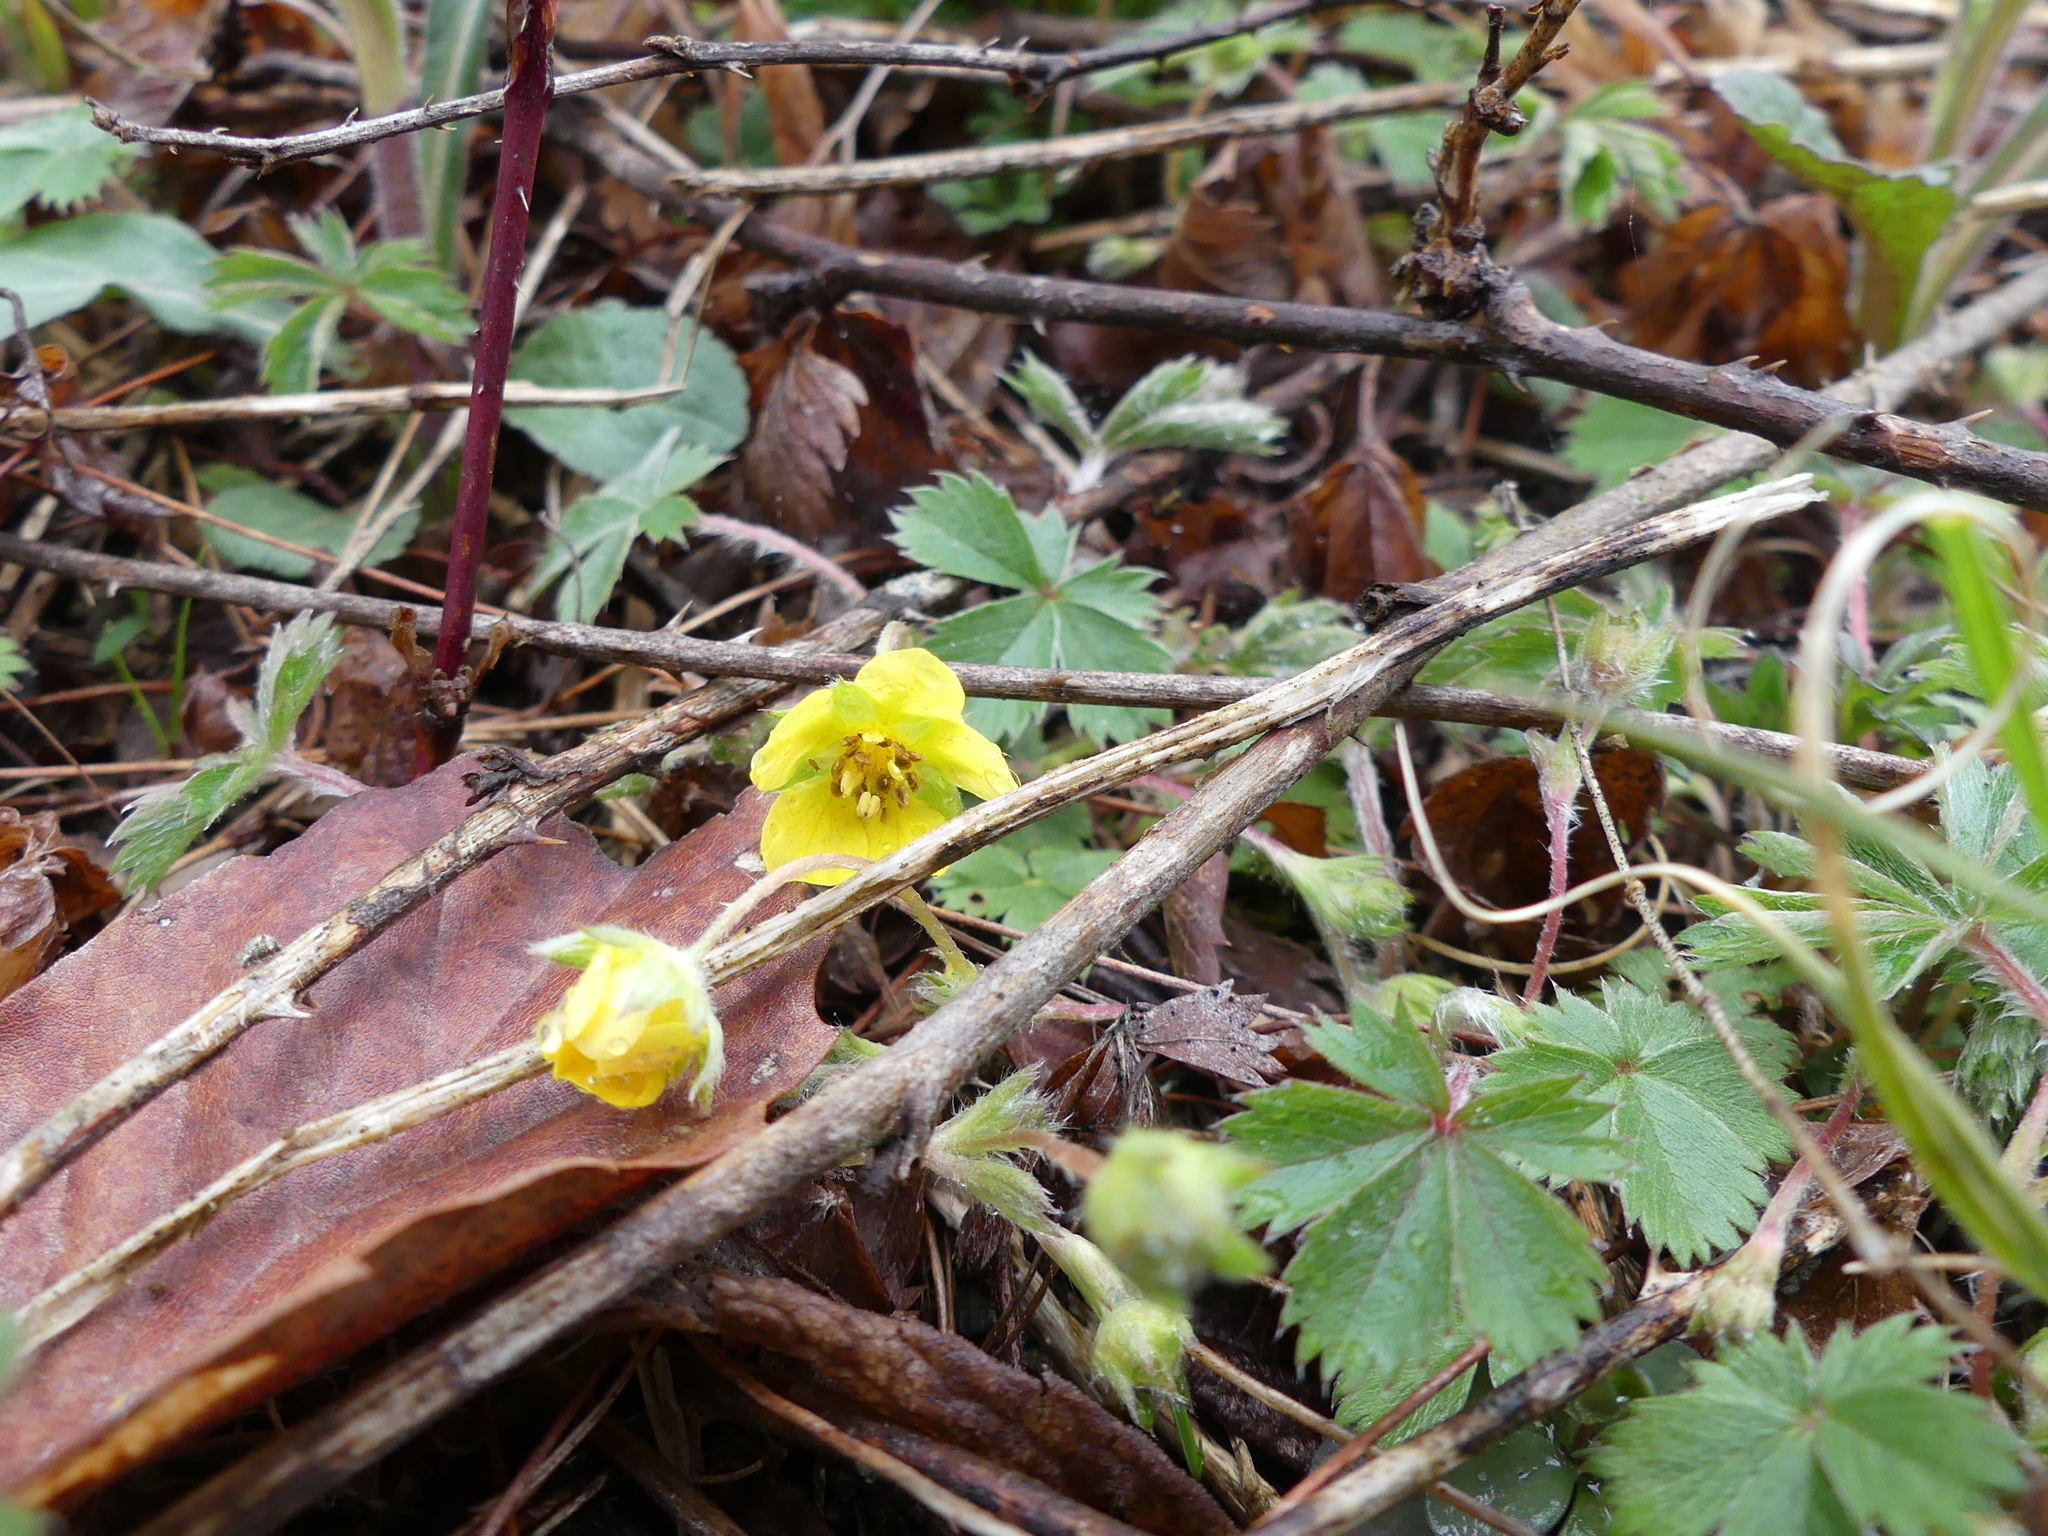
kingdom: Plantae
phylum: Tracheophyta
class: Magnoliopsida
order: Rosales
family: Rosaceae
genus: Potentilla
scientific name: Potentilla canadensis
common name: Canada cinquefoil
